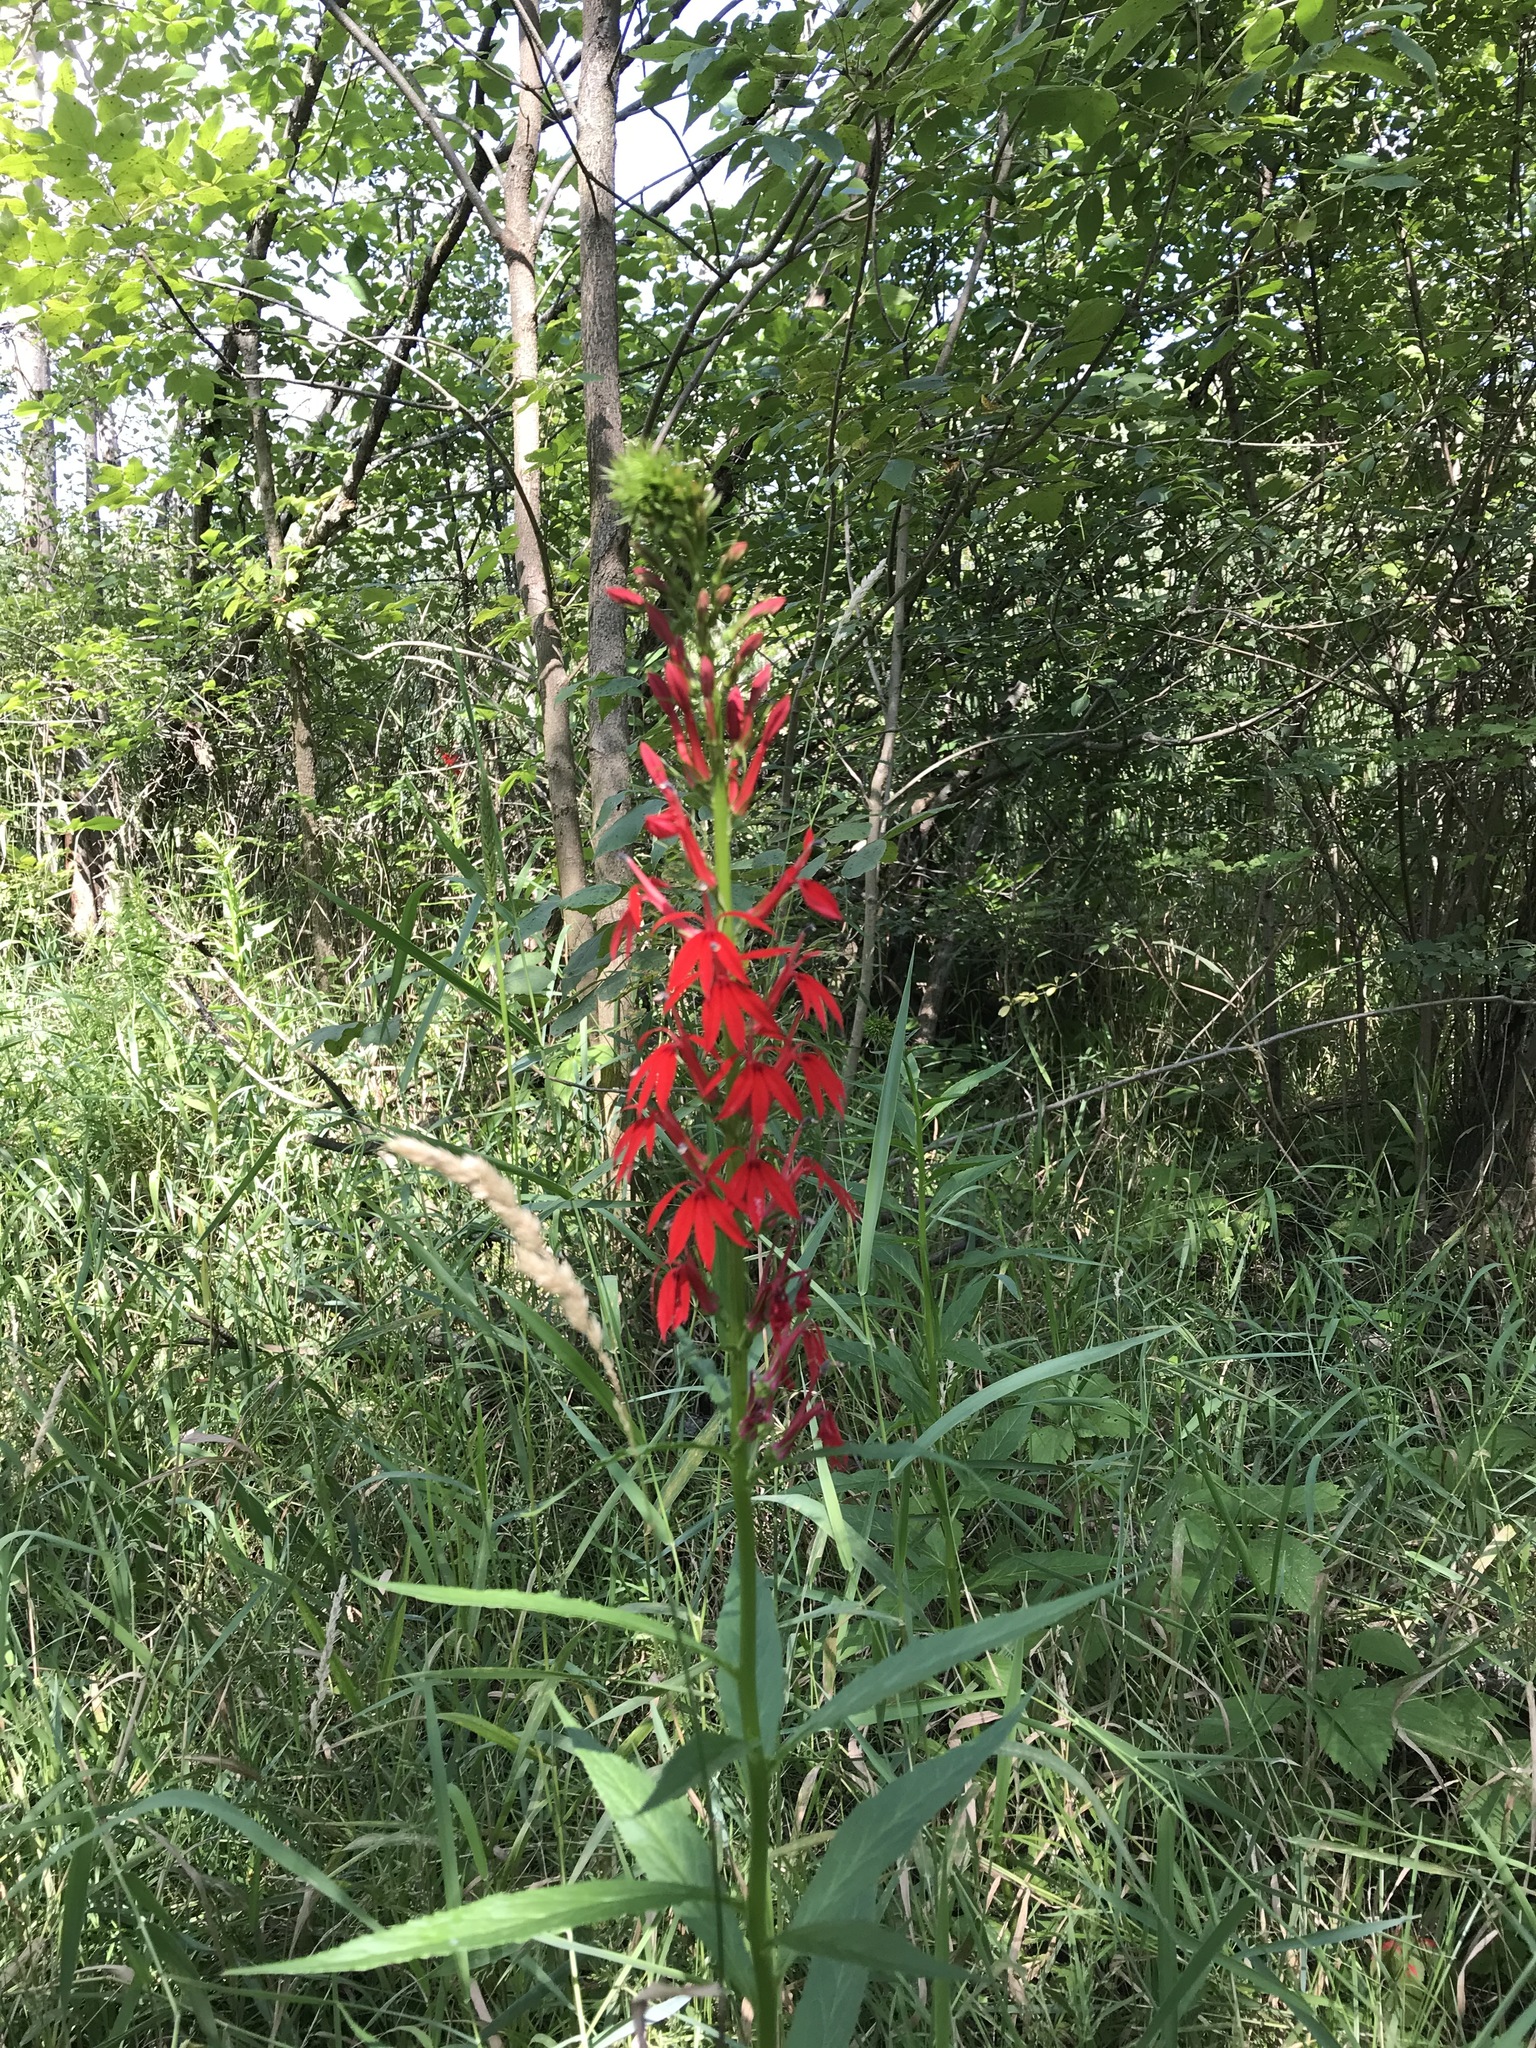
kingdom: Plantae
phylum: Tracheophyta
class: Magnoliopsida
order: Asterales
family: Campanulaceae
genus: Lobelia
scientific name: Lobelia cardinalis
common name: Cardinal flower
